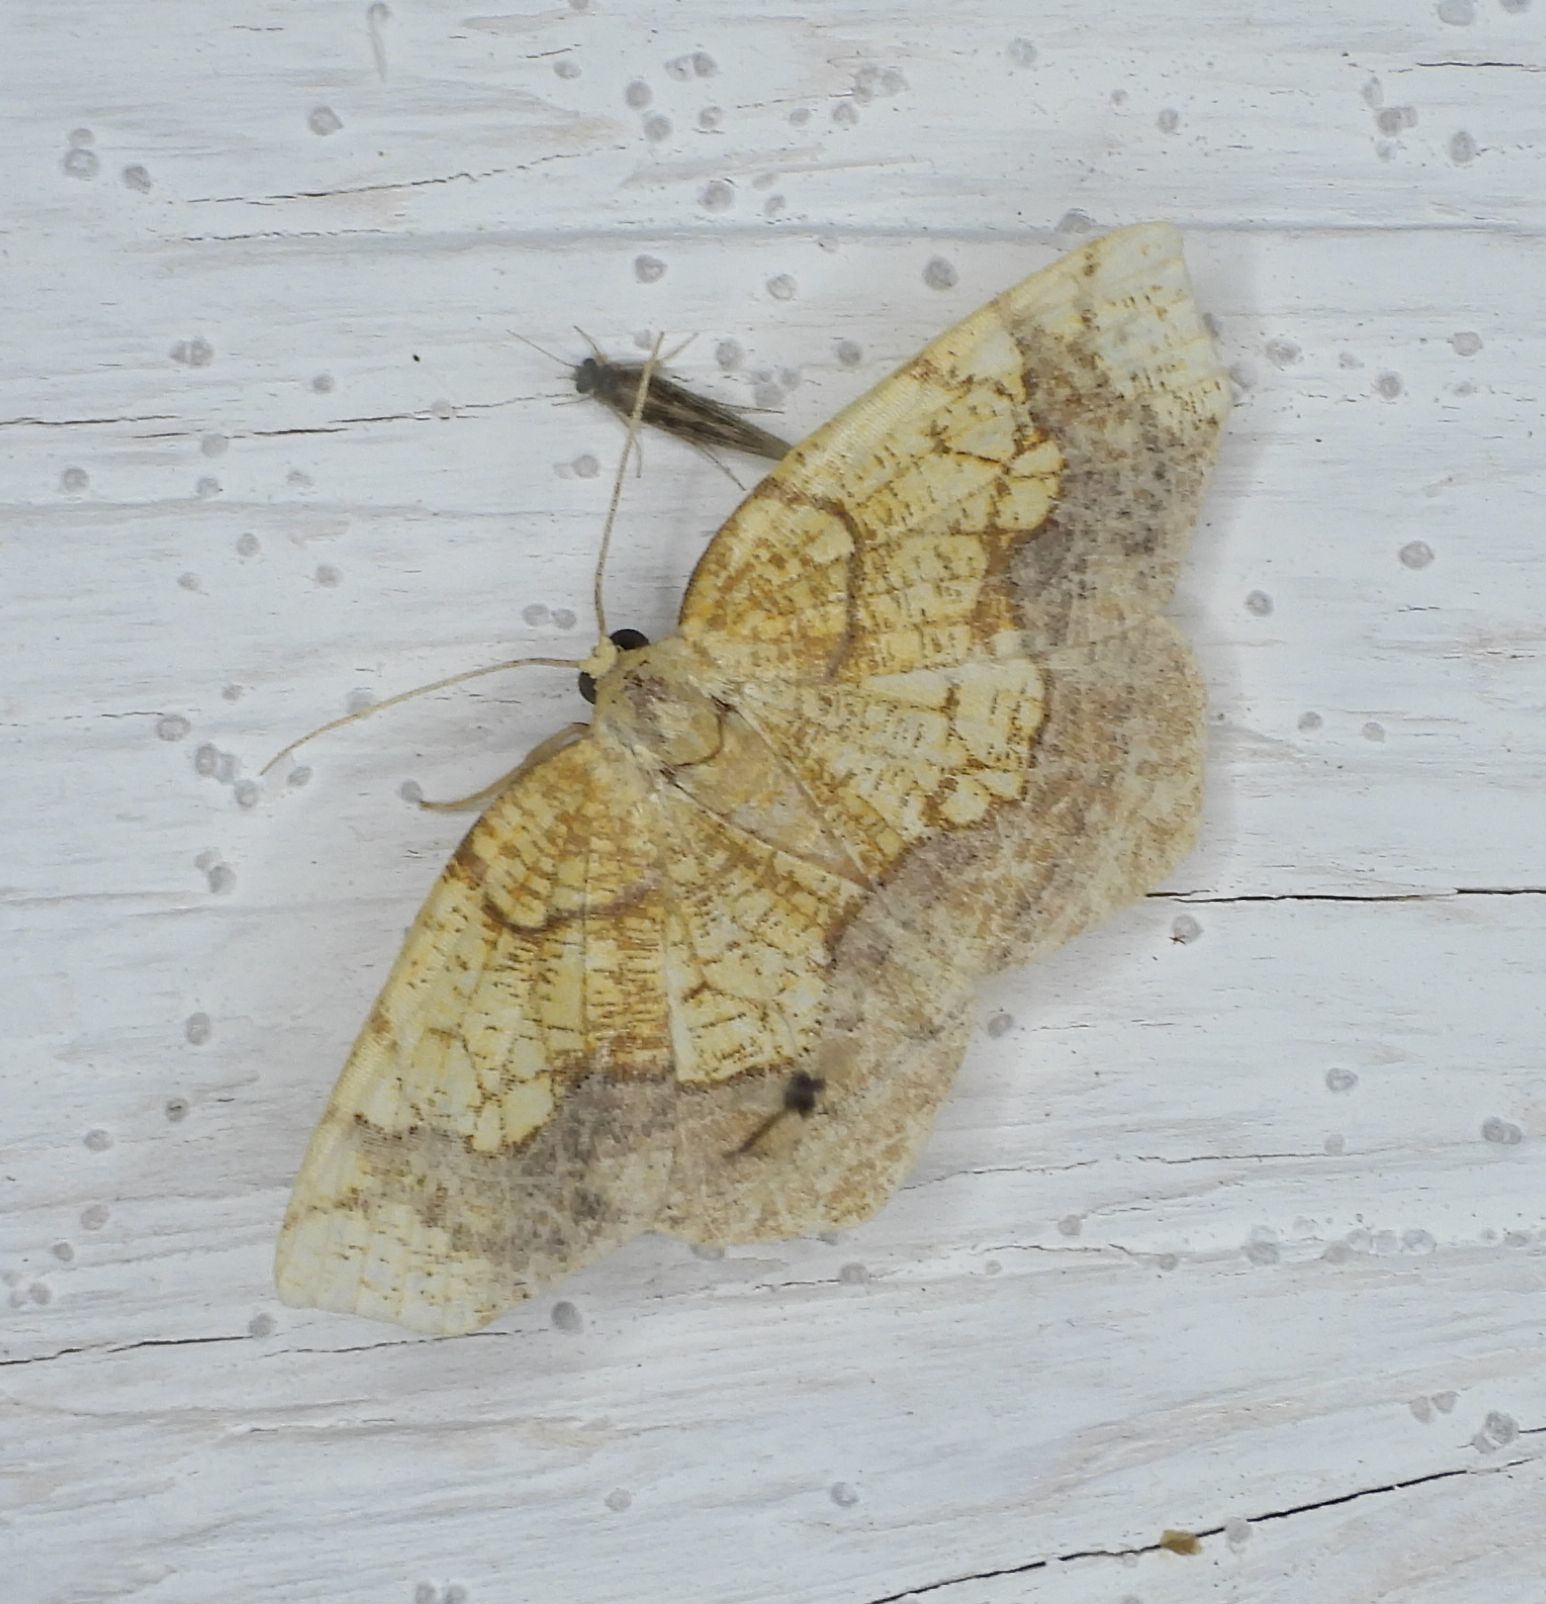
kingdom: Animalia
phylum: Arthropoda
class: Insecta
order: Lepidoptera
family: Geometridae
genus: Nematocampa
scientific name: Nematocampa resistaria
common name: Horned spanworm moth
